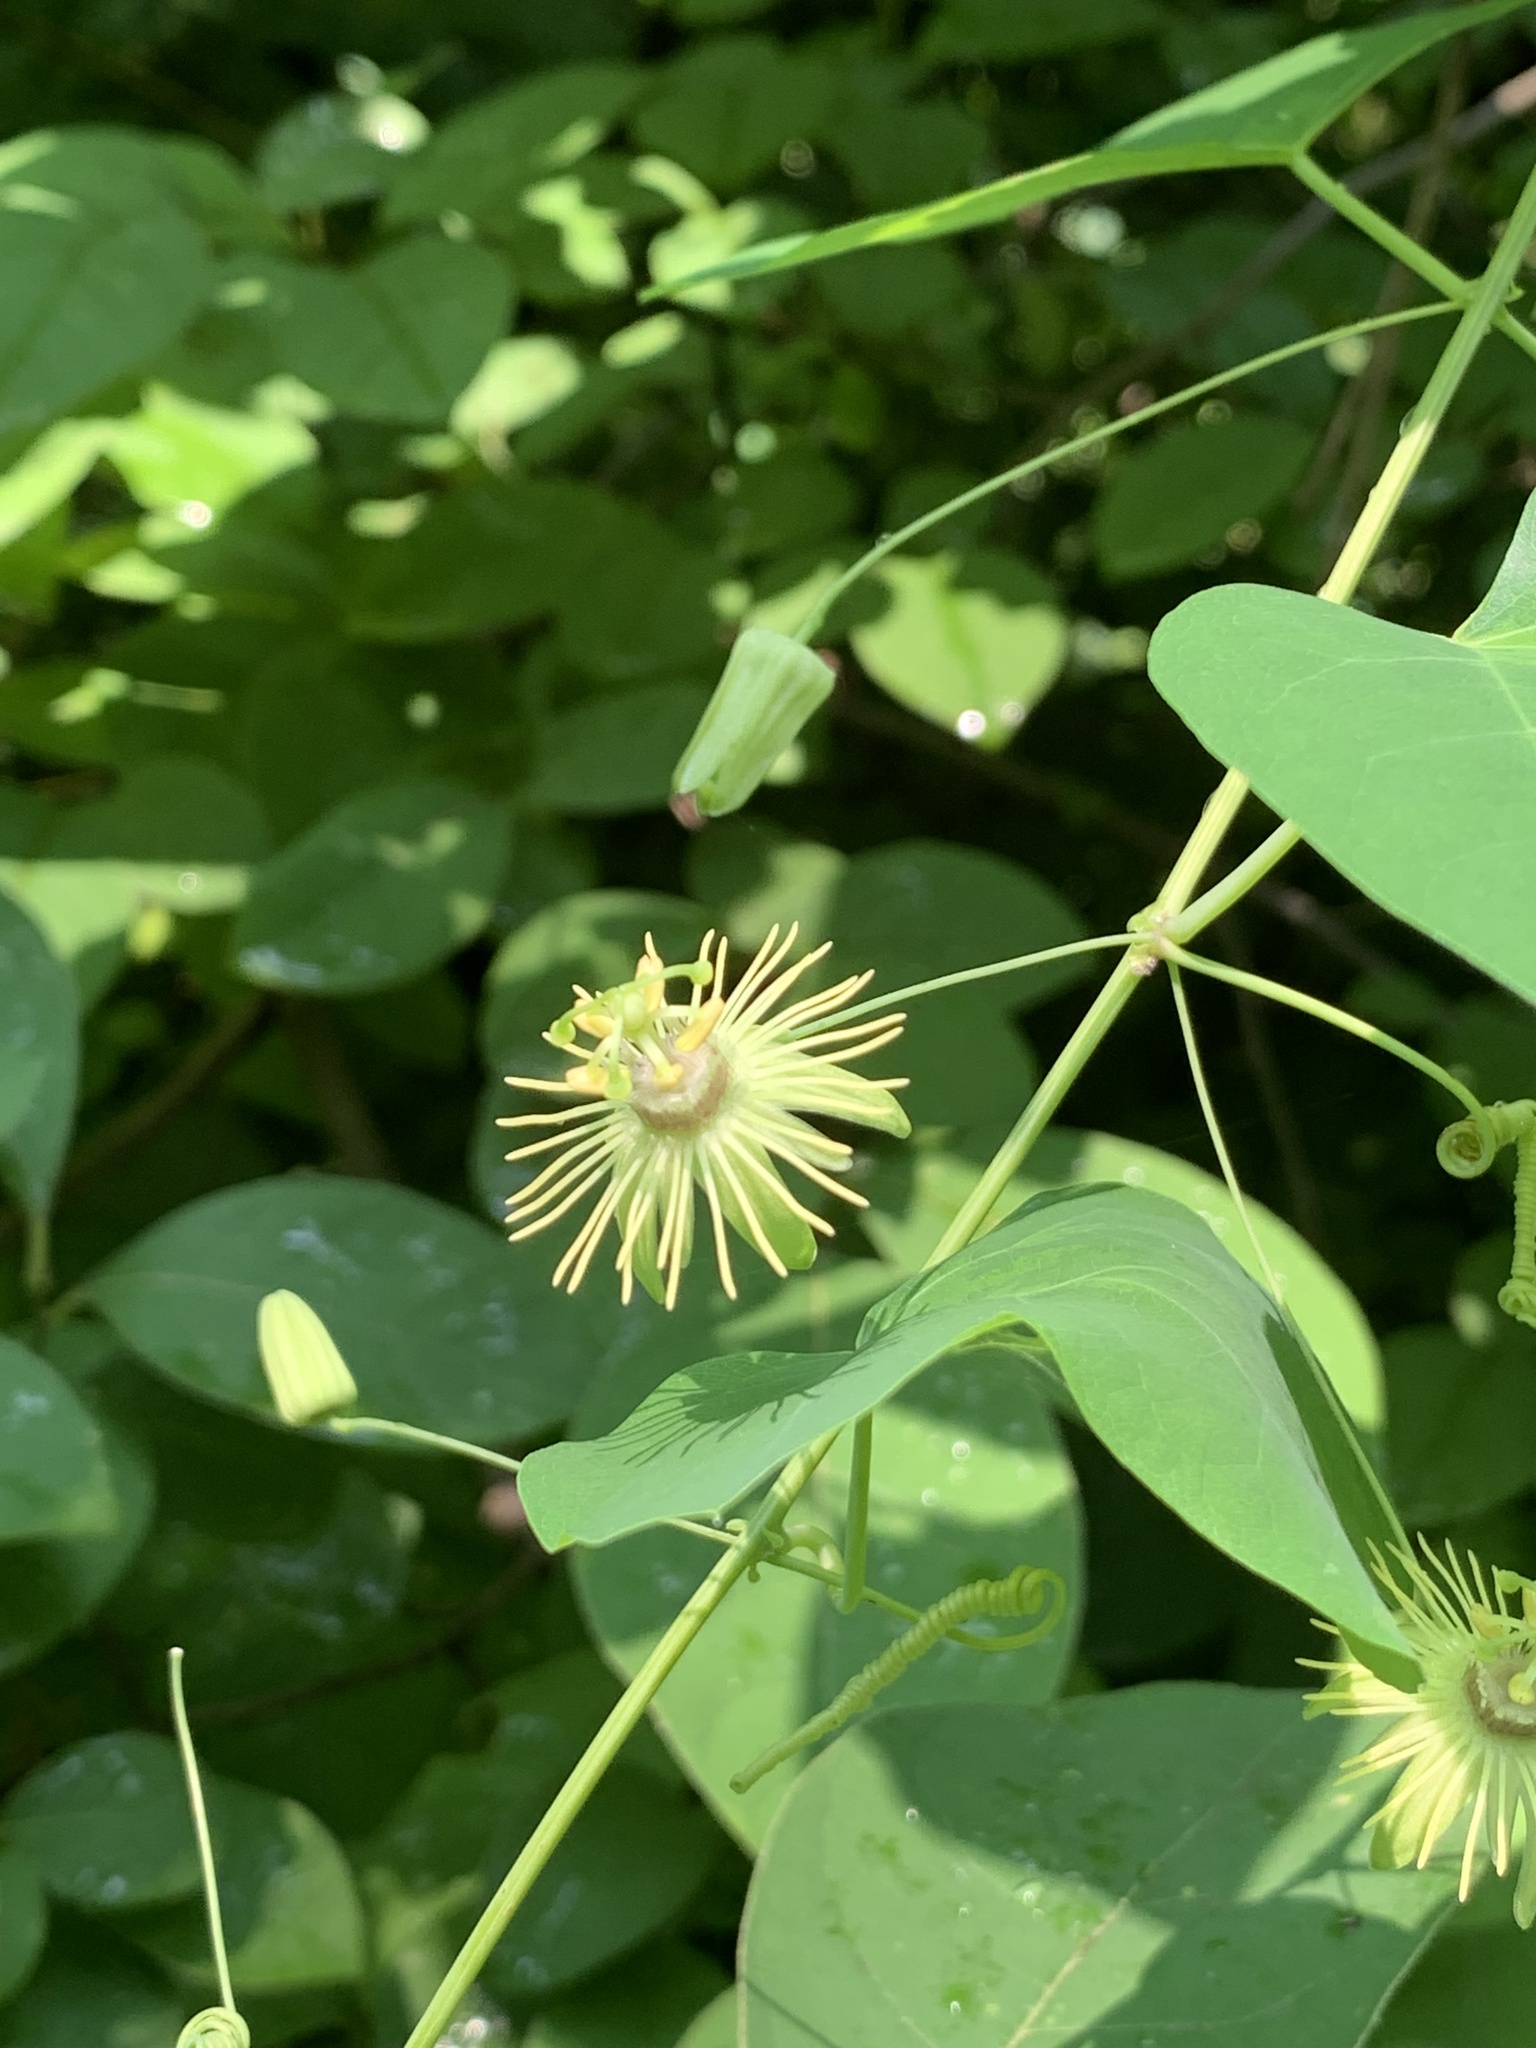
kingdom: Plantae
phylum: Tracheophyta
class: Magnoliopsida
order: Malpighiales
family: Passifloraceae
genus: Passiflora
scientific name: Passiflora lutea
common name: Yellow passionflower
